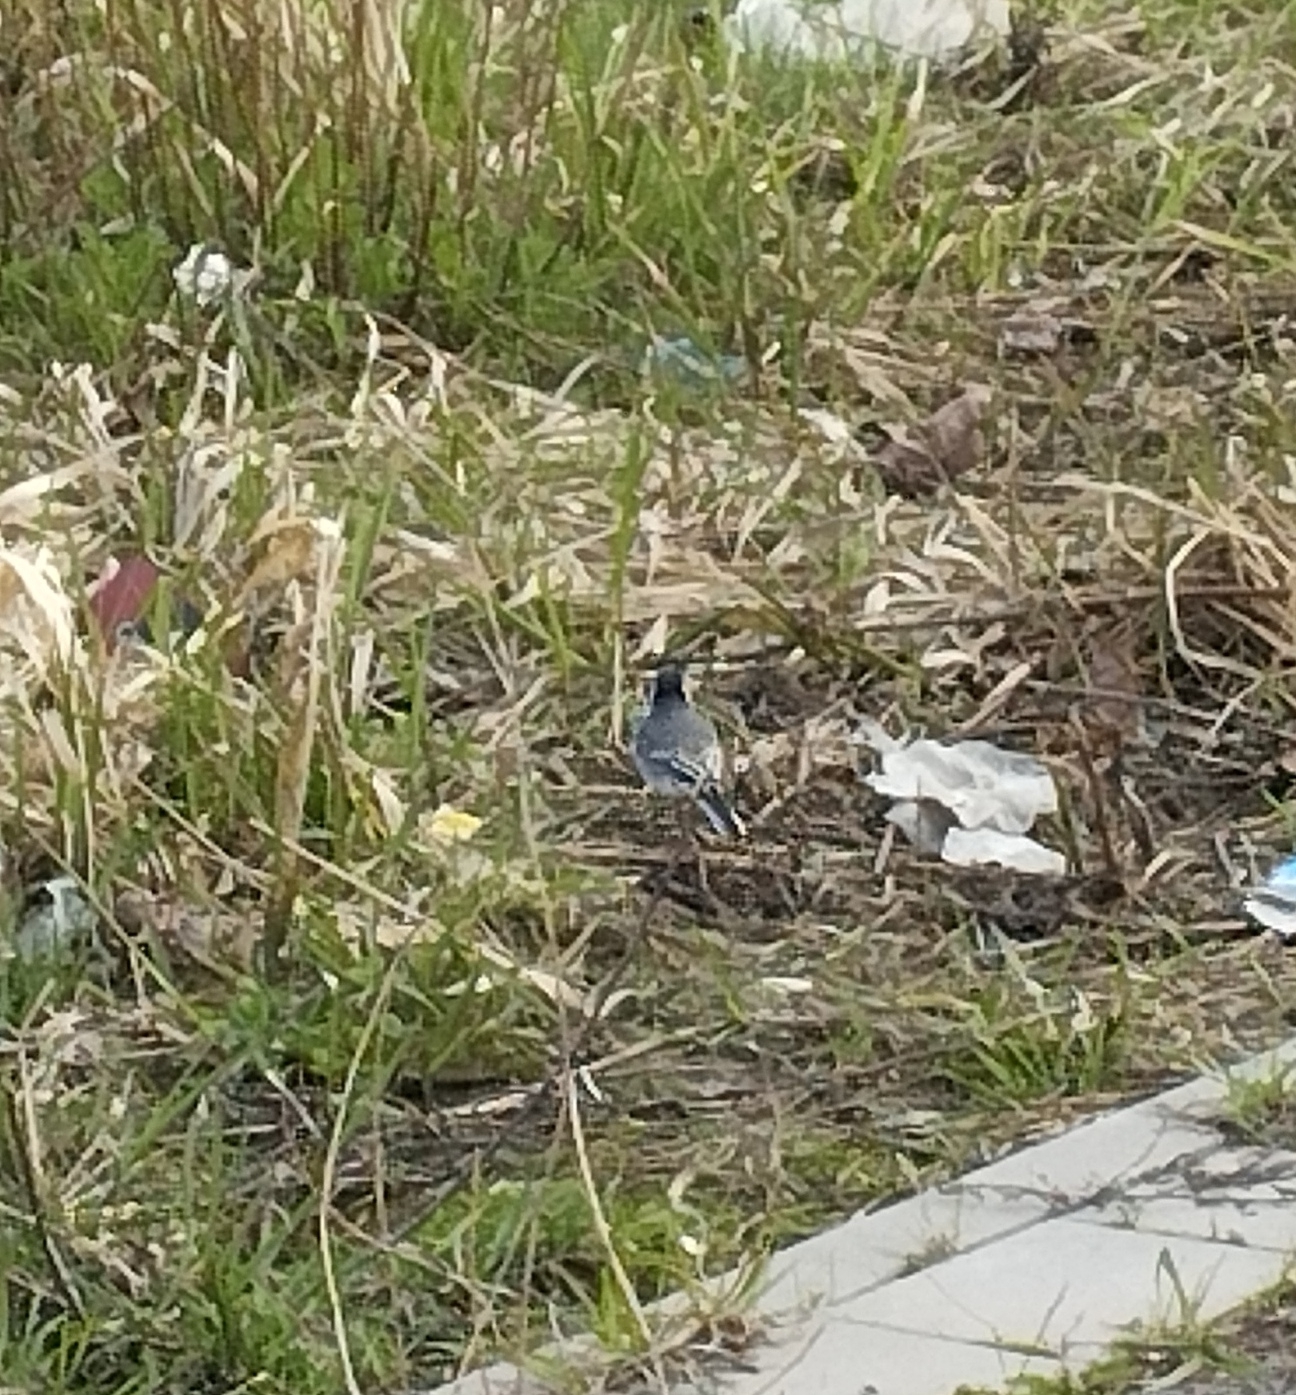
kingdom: Animalia
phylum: Chordata
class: Aves
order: Passeriformes
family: Motacillidae
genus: Motacilla
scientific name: Motacilla alba
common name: White wagtail
